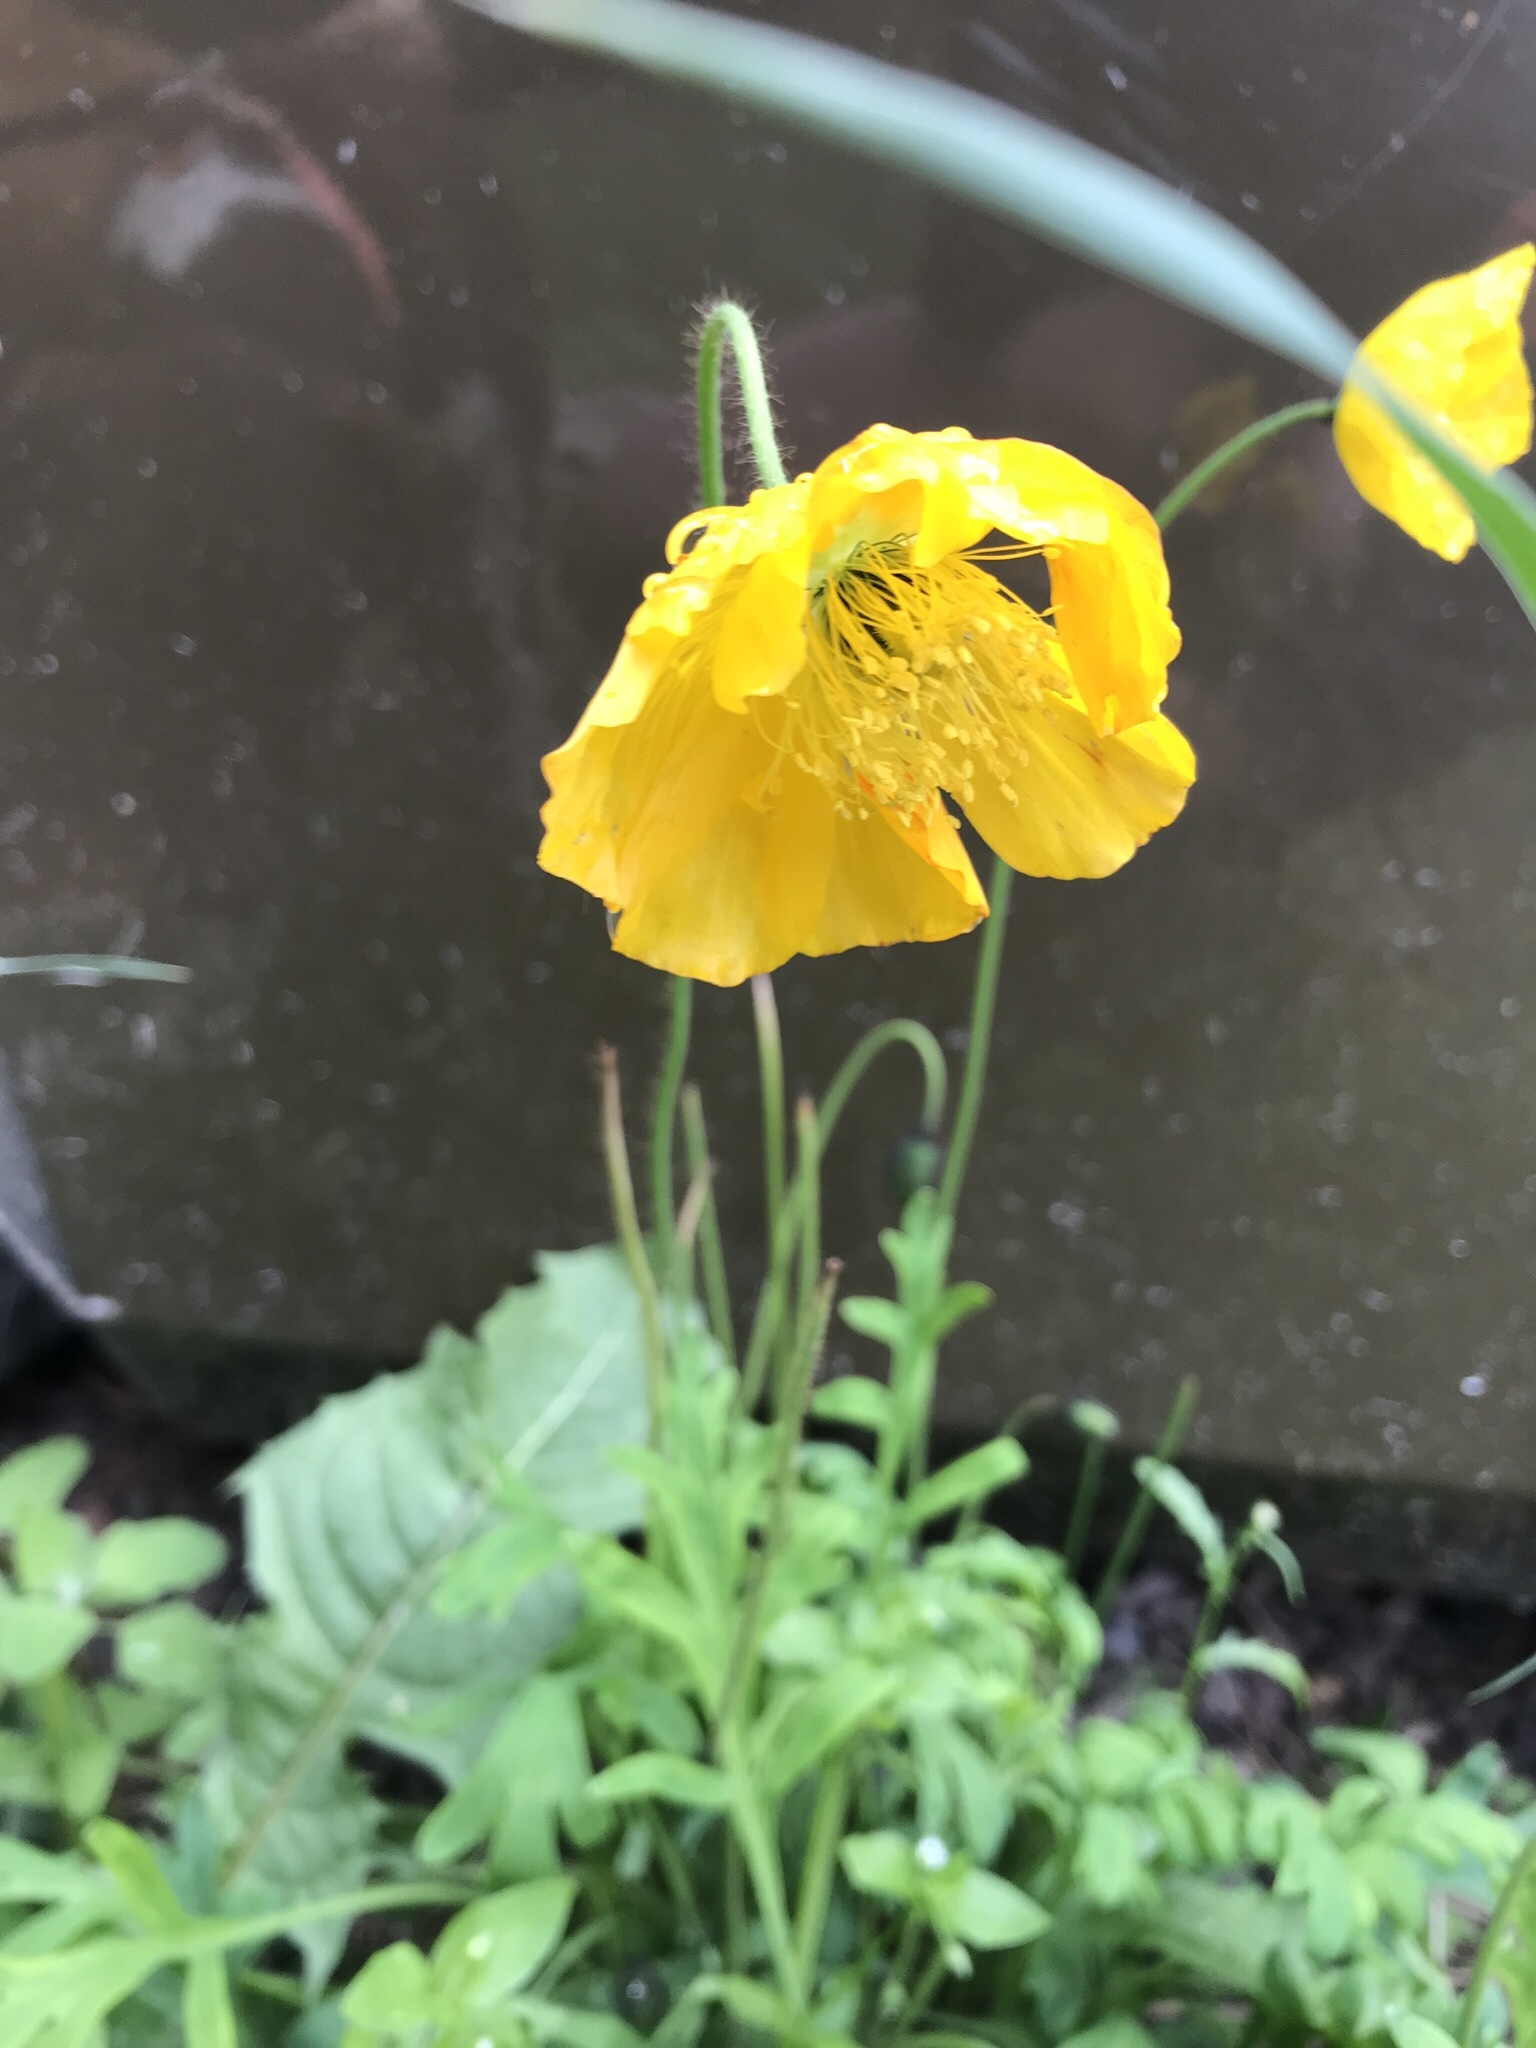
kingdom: Plantae
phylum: Tracheophyta
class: Magnoliopsida
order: Ranunculales
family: Papaveraceae
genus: Papaver
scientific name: Papaver nudicaule
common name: Arctic poppy
